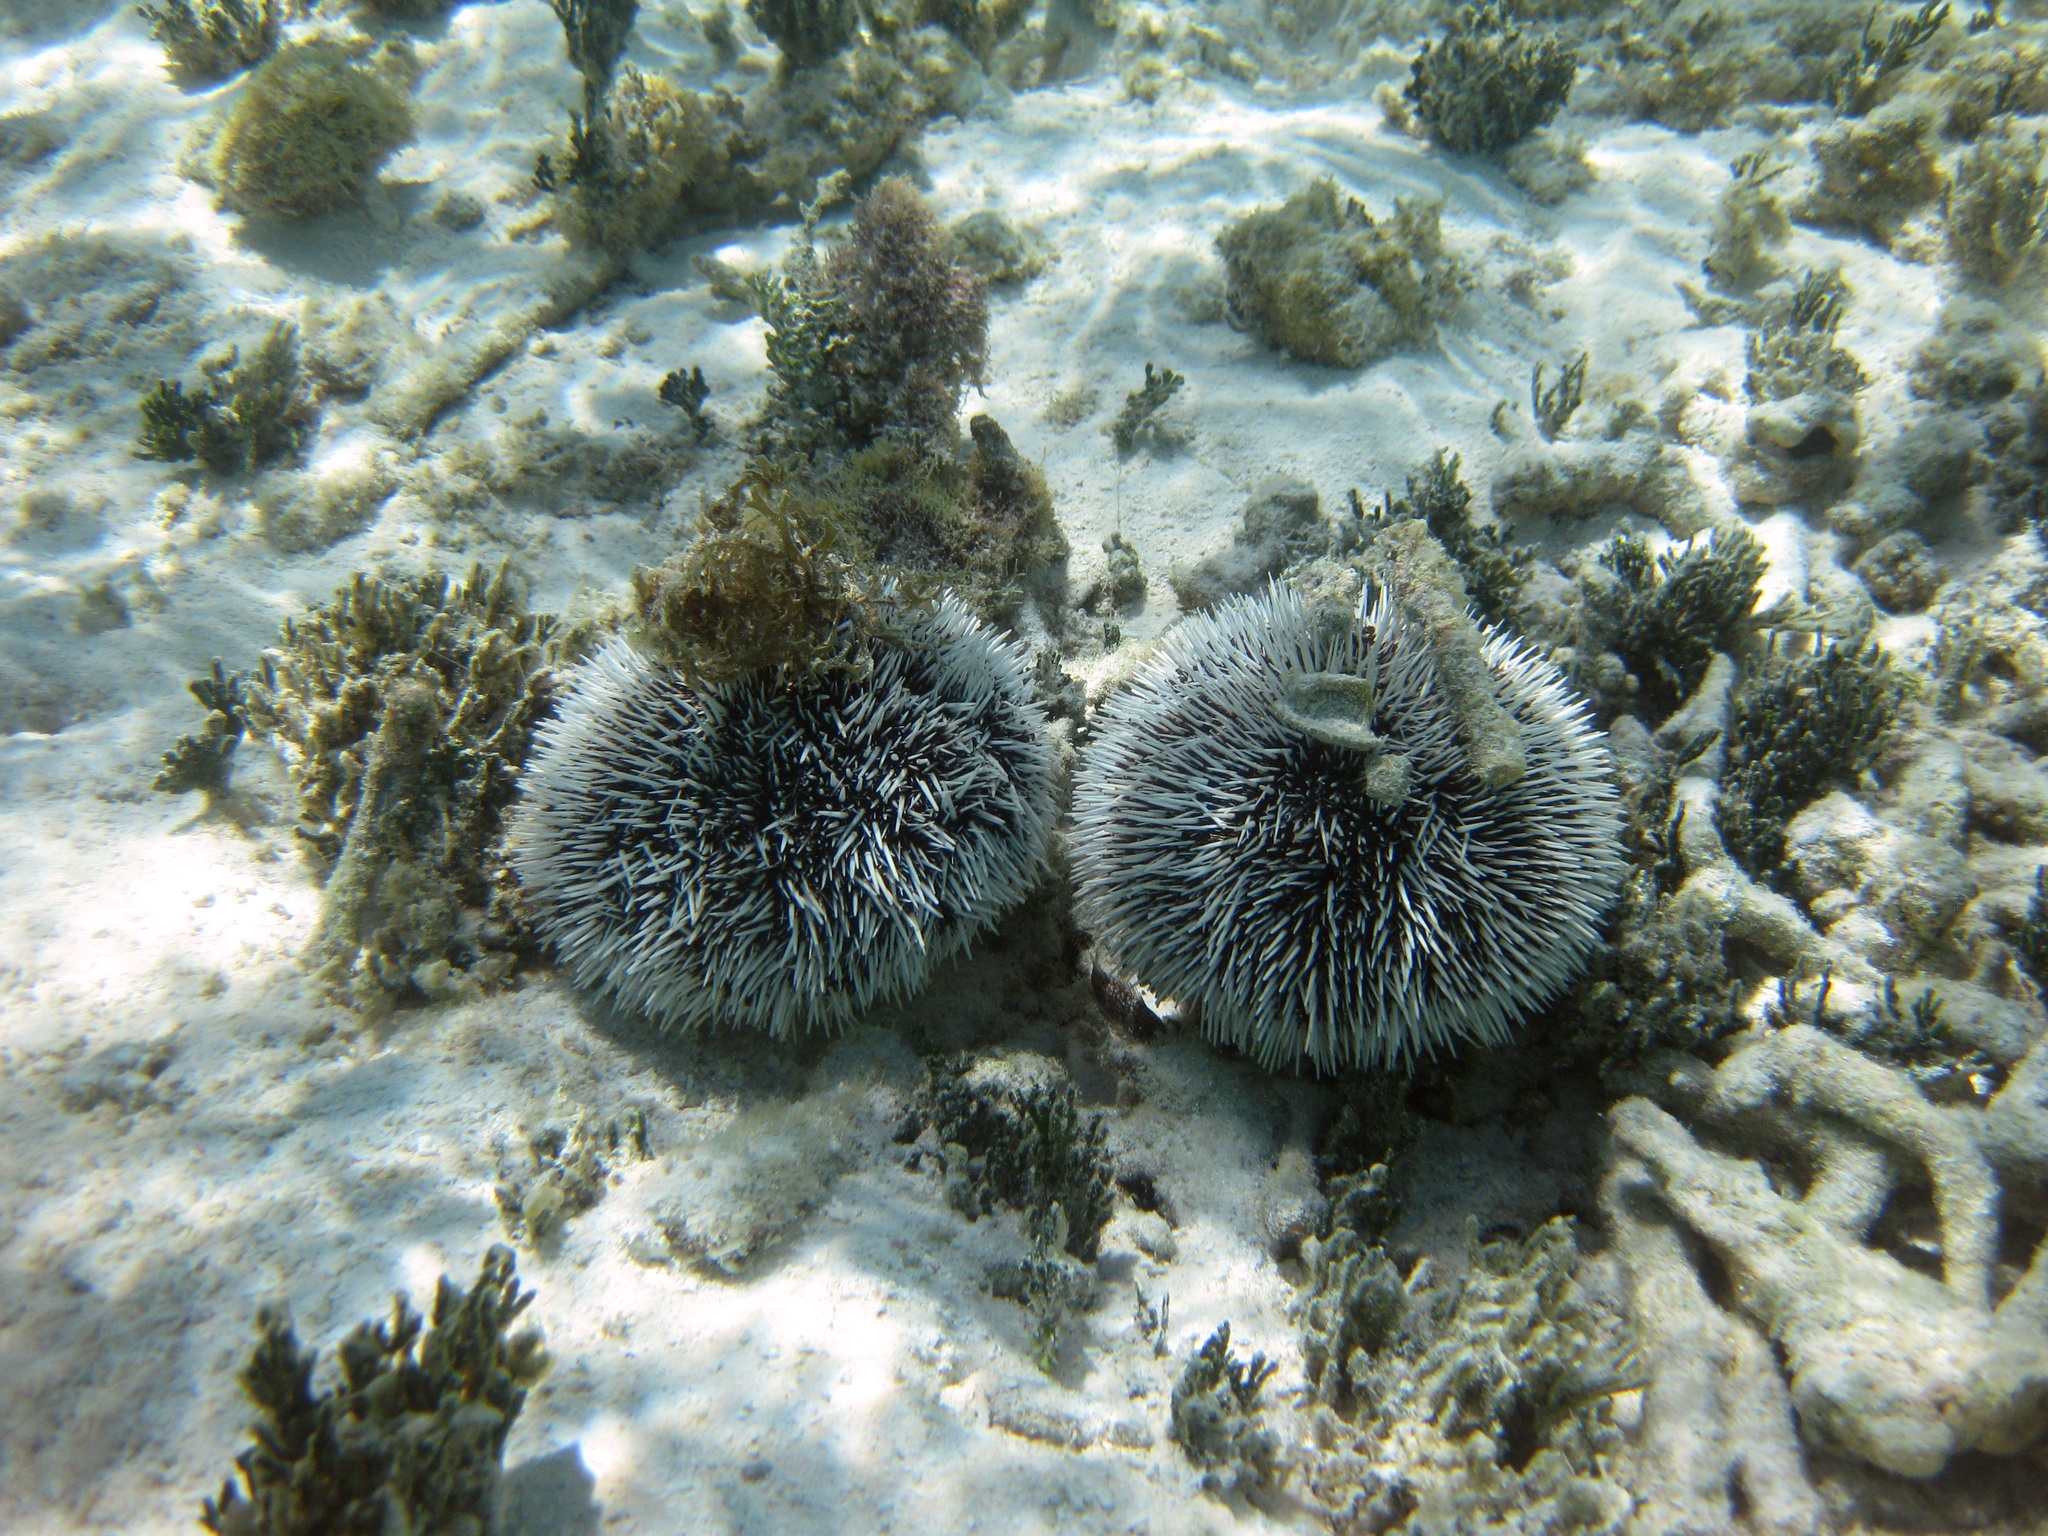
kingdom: Animalia
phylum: Echinodermata
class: Echinoidea
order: Camarodonta
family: Toxopneustidae
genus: Tripneustes
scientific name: Tripneustes ventricosus
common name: West indian sea egg
